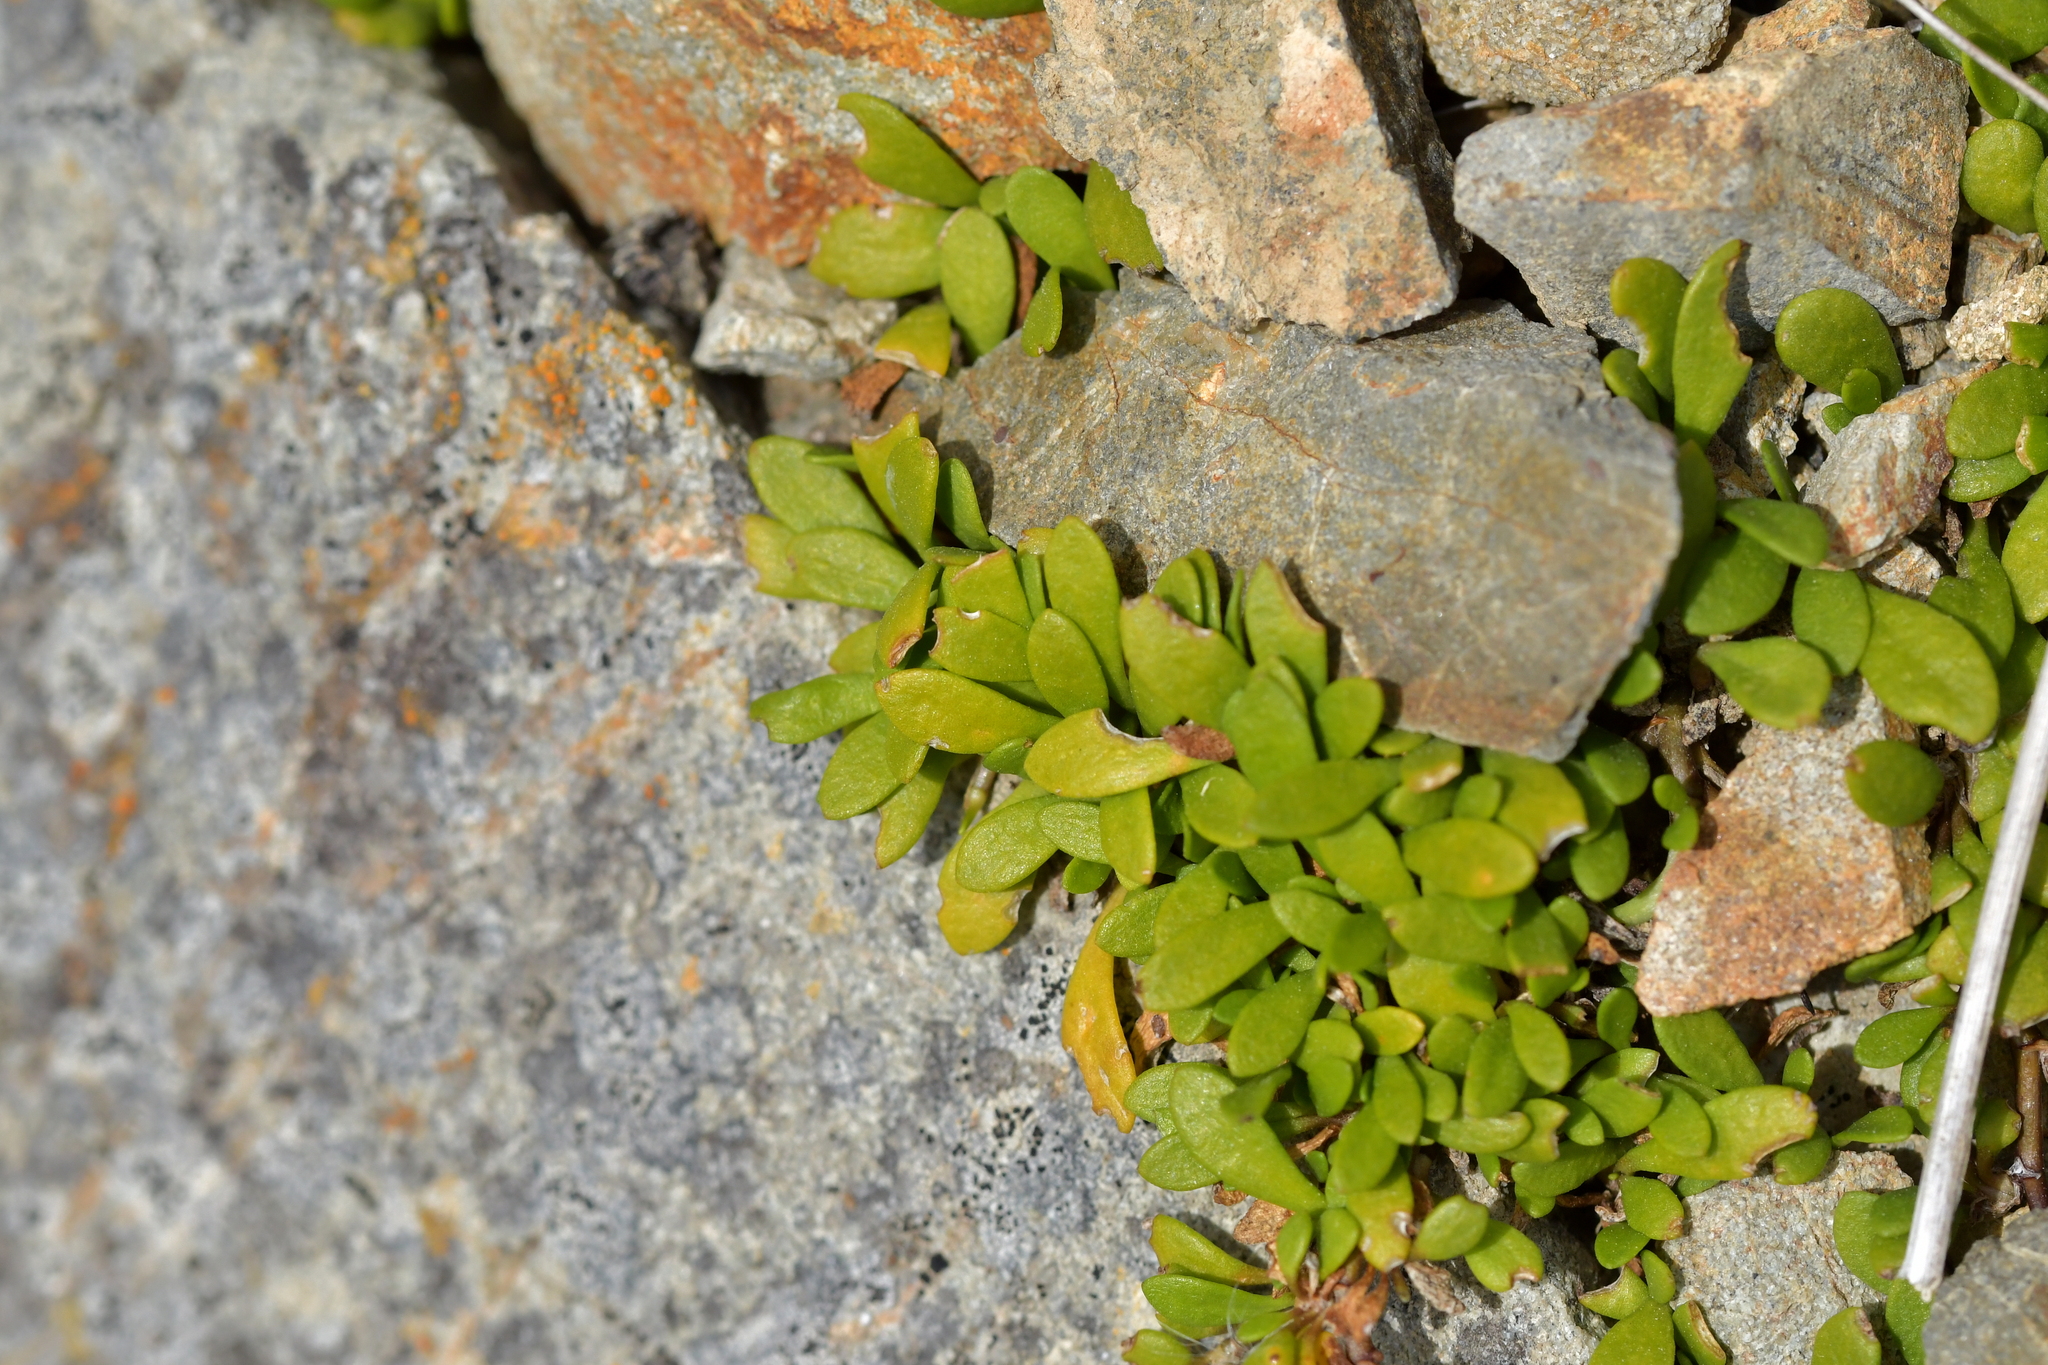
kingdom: Plantae
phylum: Tracheophyta
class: Magnoliopsida
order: Asterales
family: Goodeniaceae
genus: Goodenia
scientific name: Goodenia radicans
